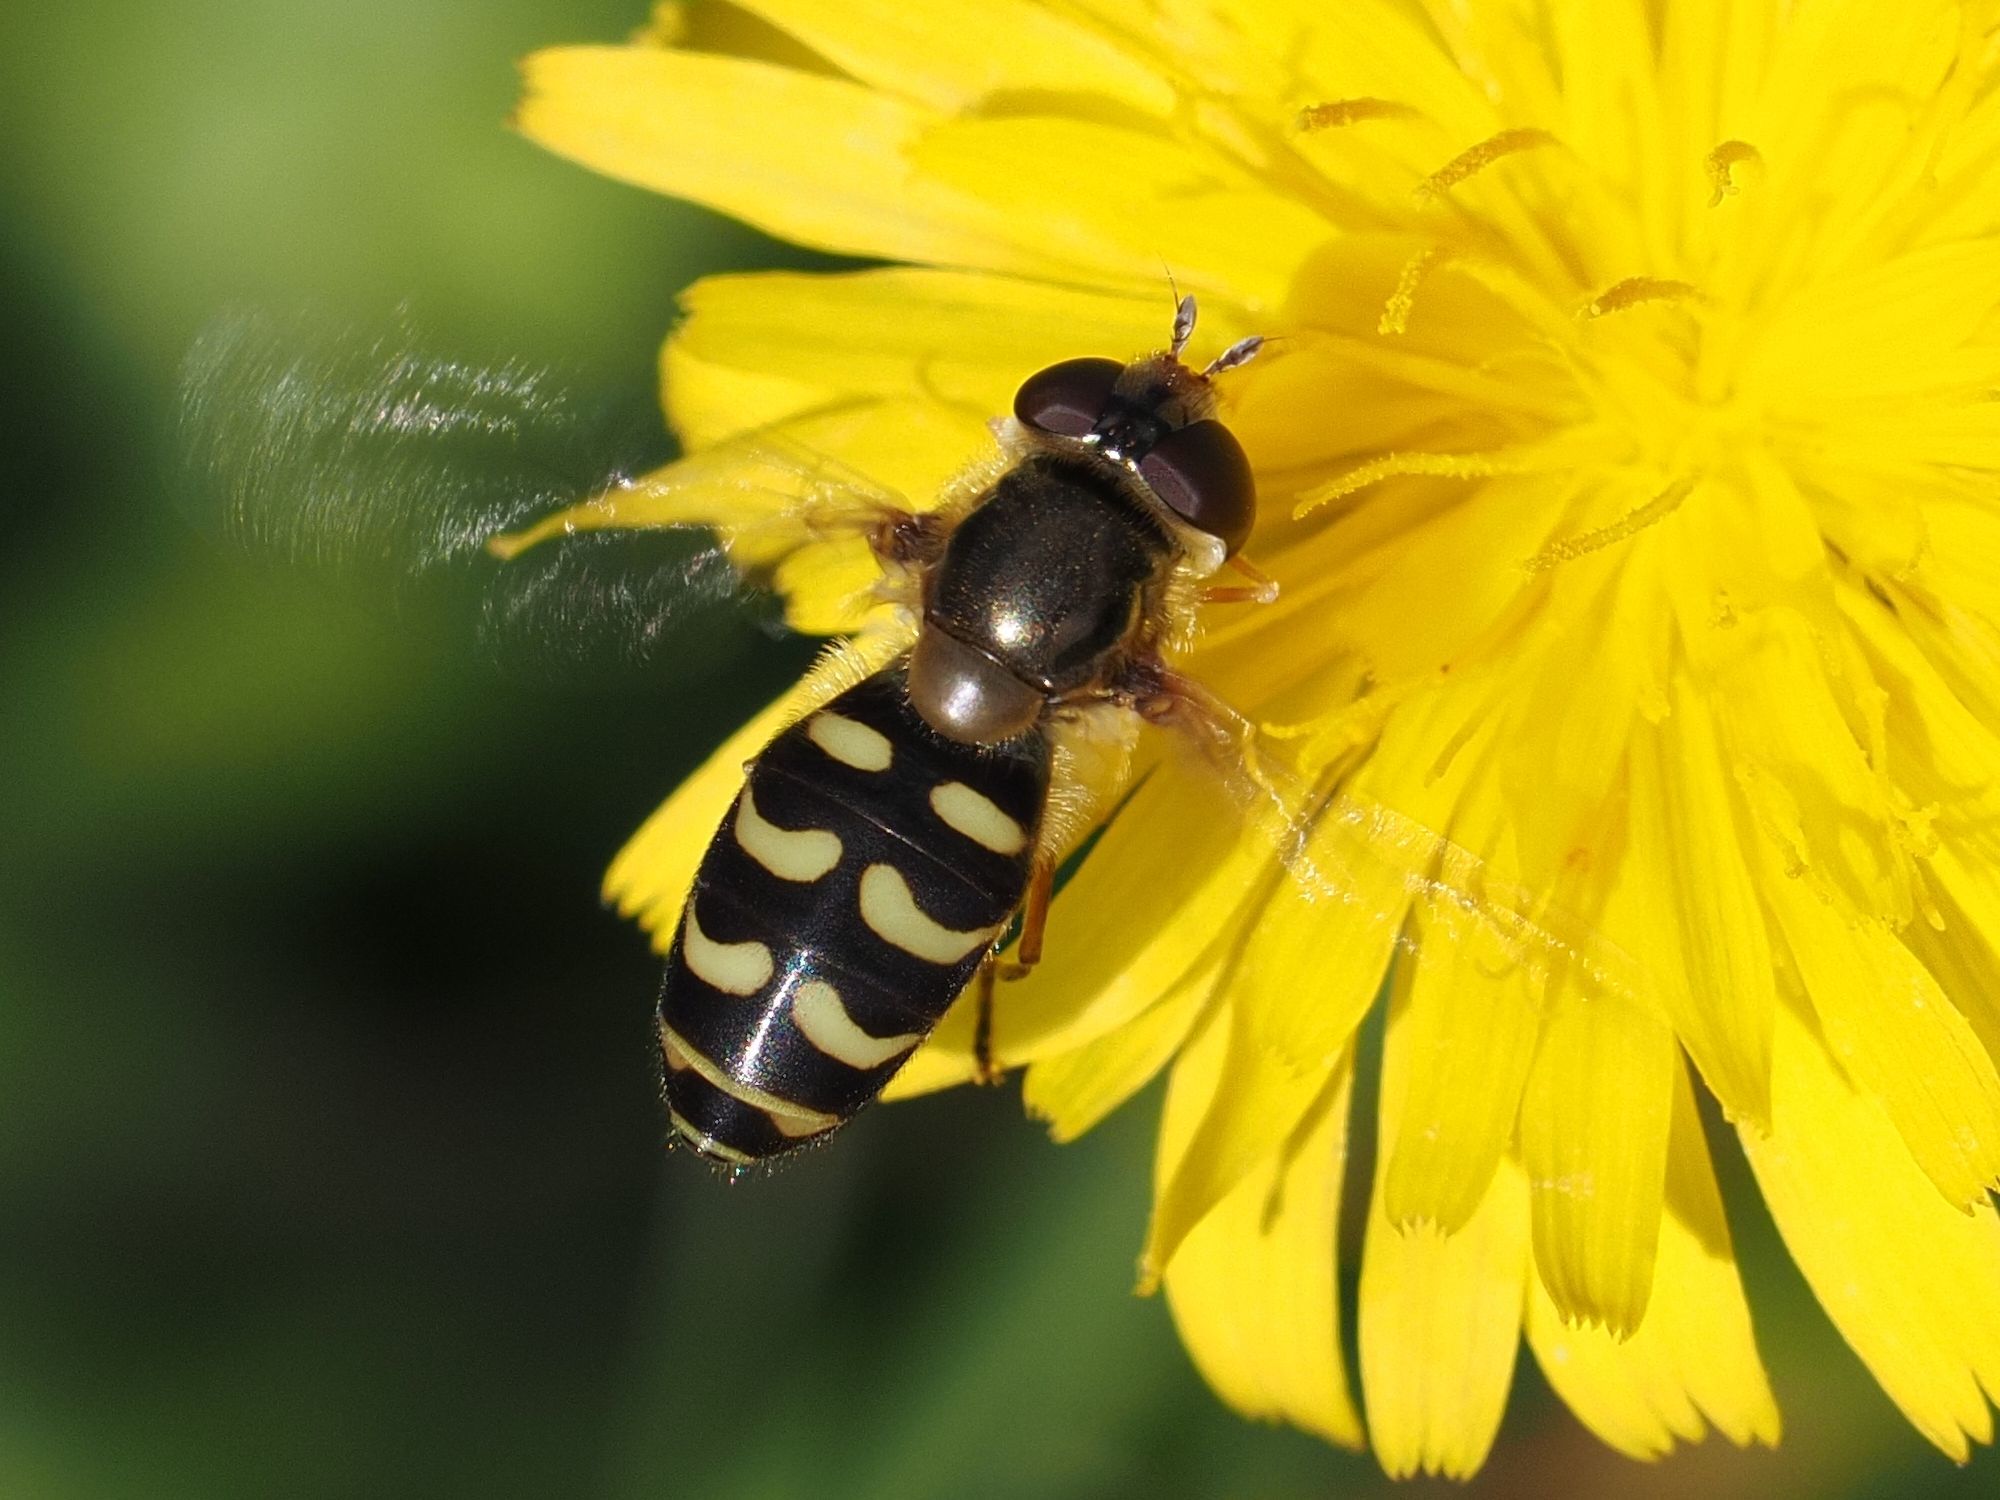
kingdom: Animalia
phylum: Arthropoda
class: Insecta
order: Diptera
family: Syrphidae
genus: Lapposyrphus
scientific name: Lapposyrphus lapponicus
